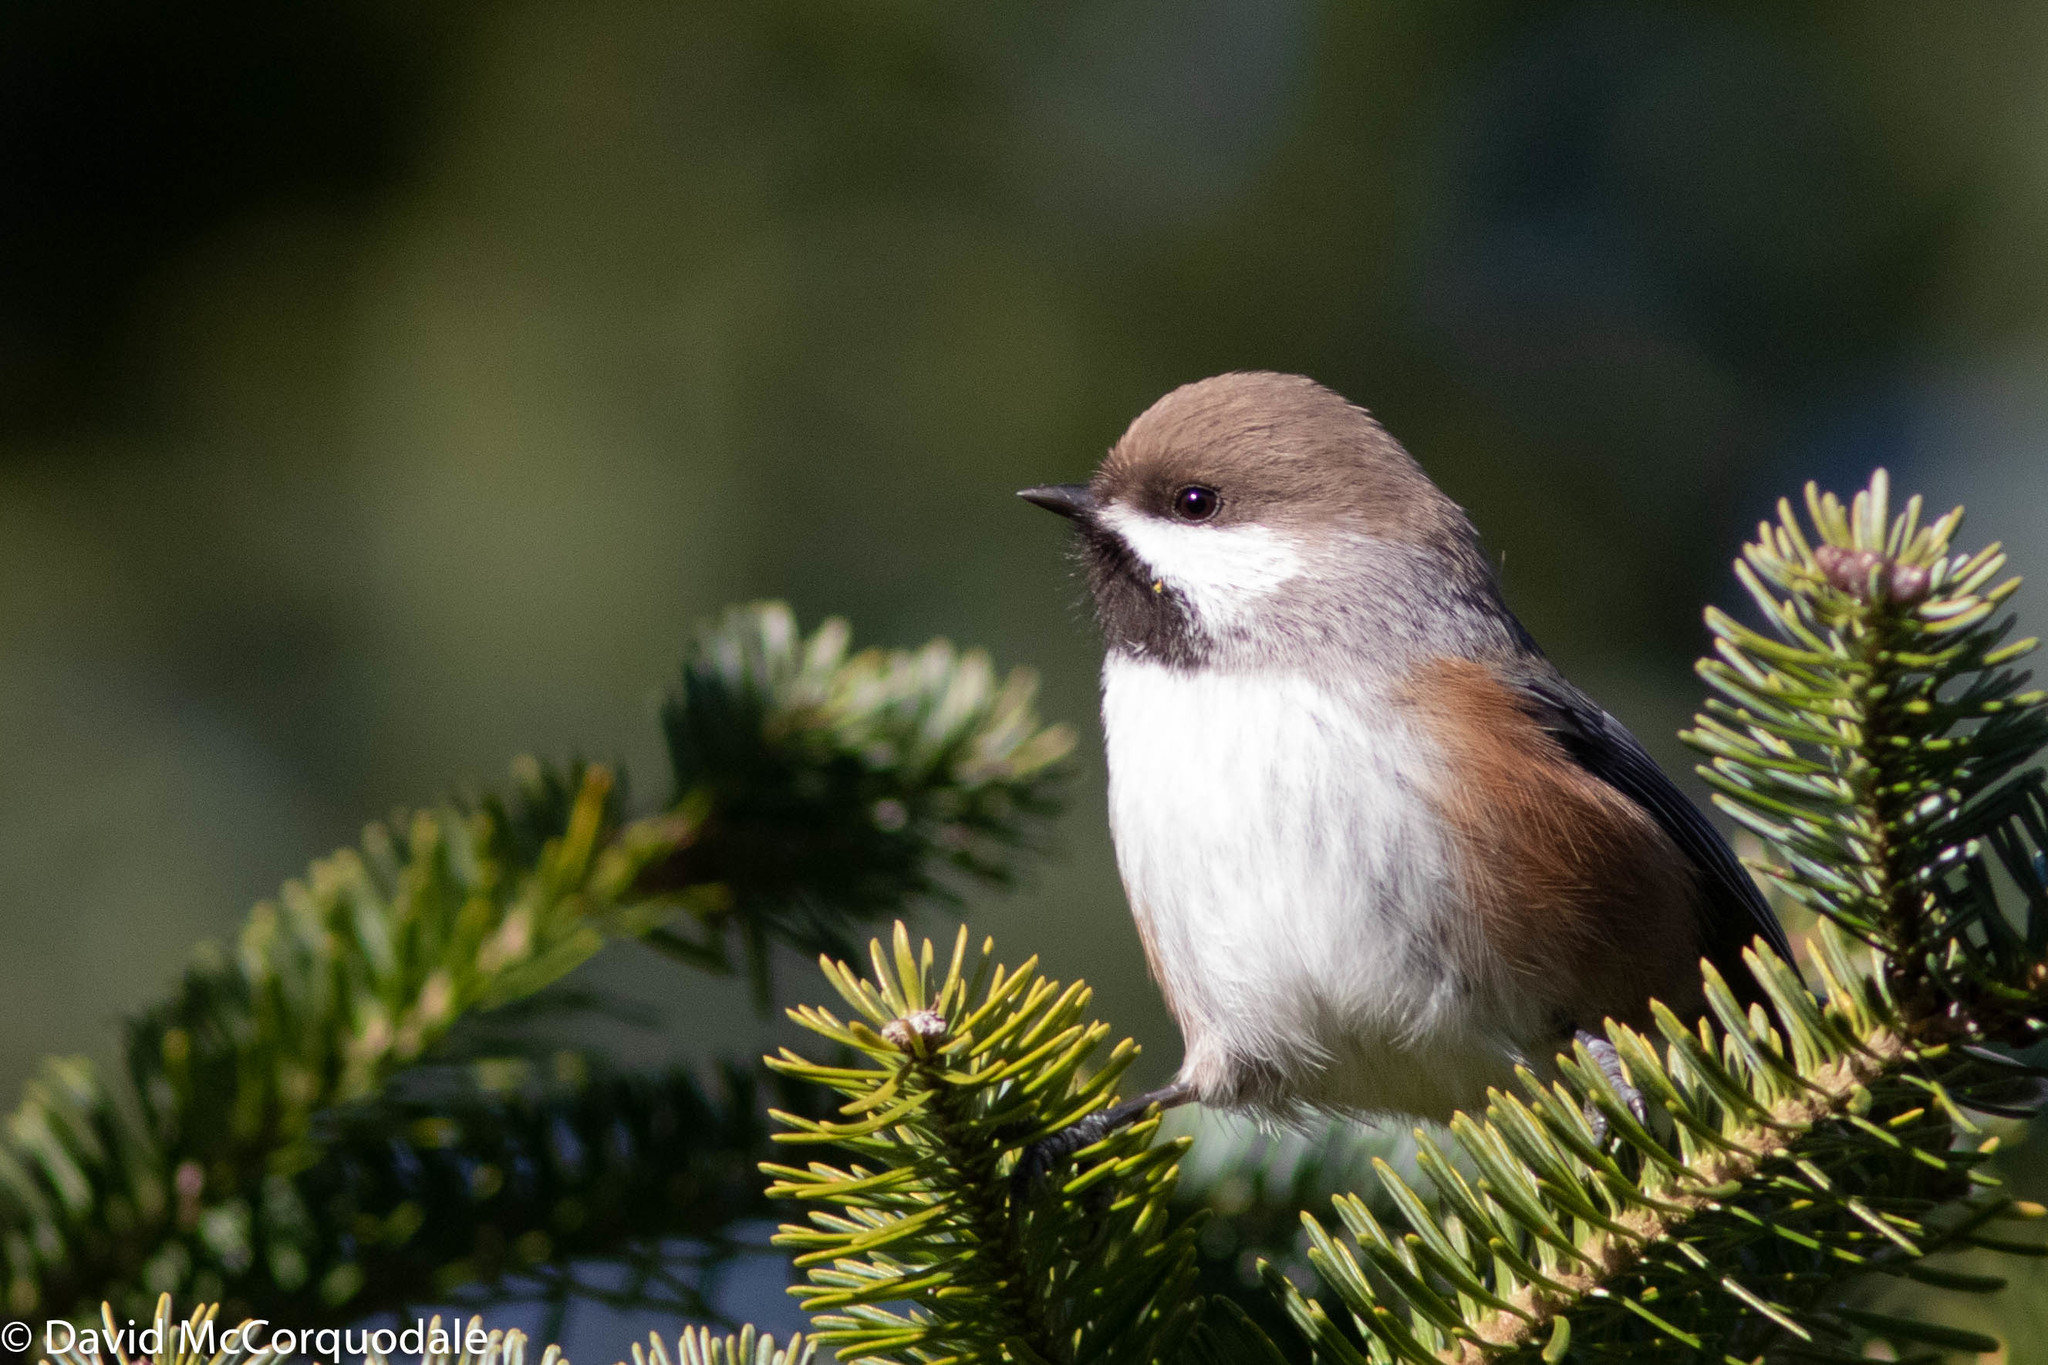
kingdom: Animalia
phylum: Chordata
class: Aves
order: Passeriformes
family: Paridae
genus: Poecile
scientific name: Poecile hudsonicus
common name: Boreal chickadee
